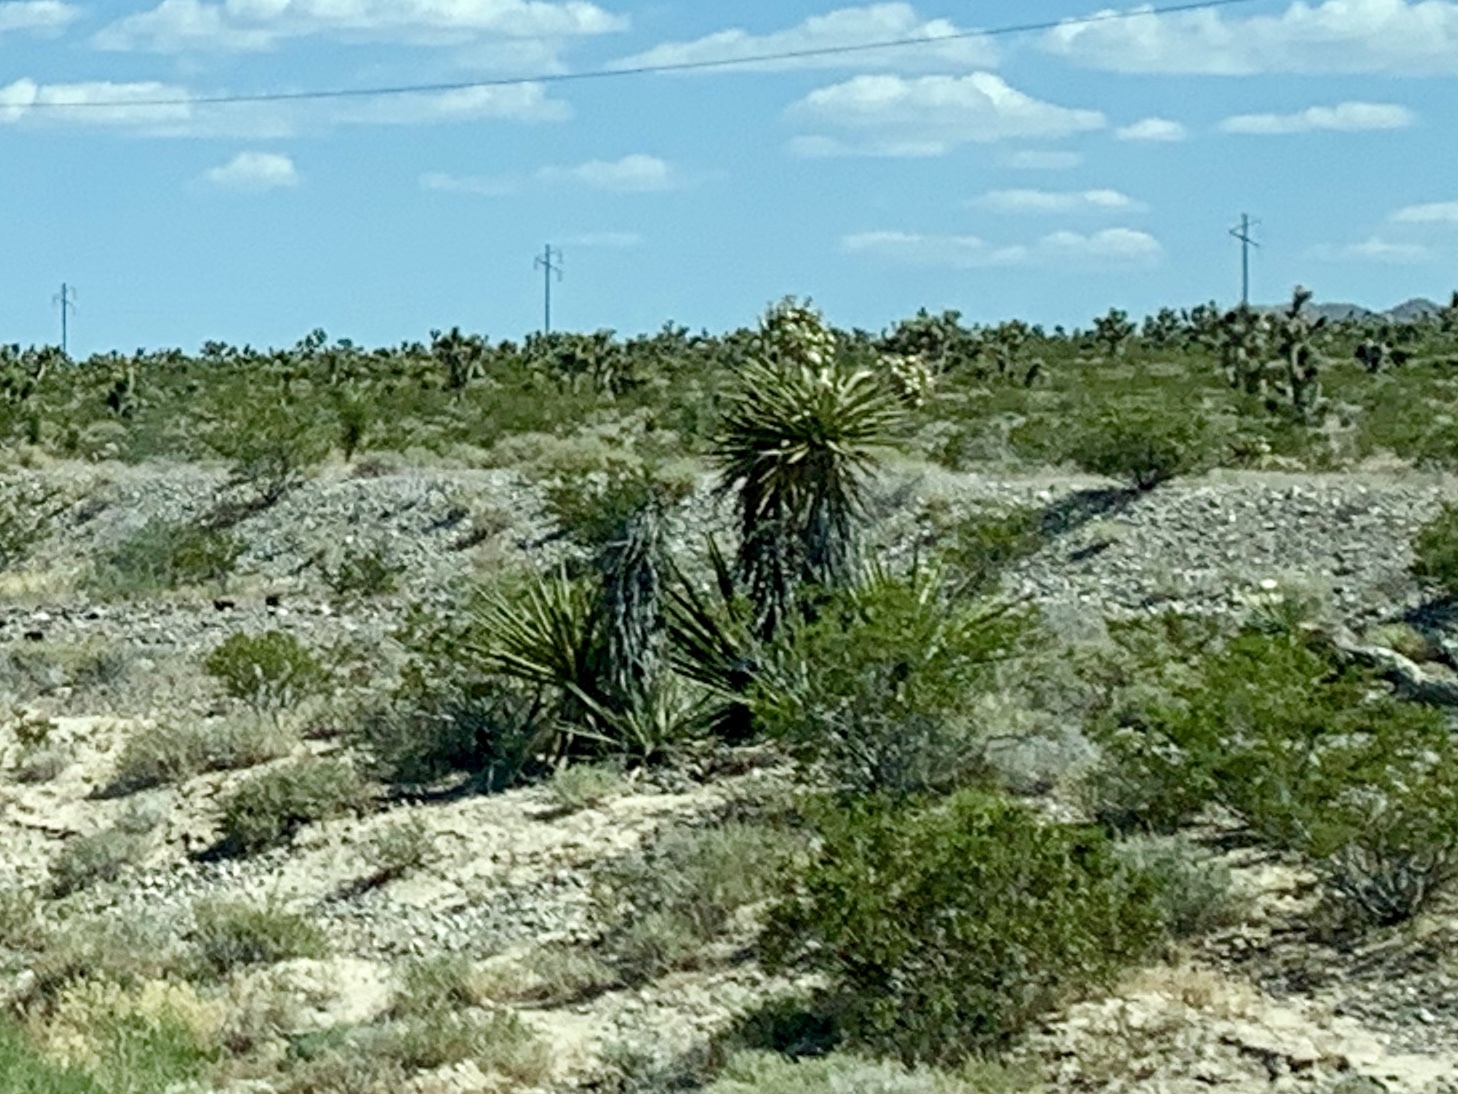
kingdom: Plantae
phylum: Tracheophyta
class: Liliopsida
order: Asparagales
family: Asparagaceae
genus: Yucca
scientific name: Yucca schidigera
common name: Mojave yucca
